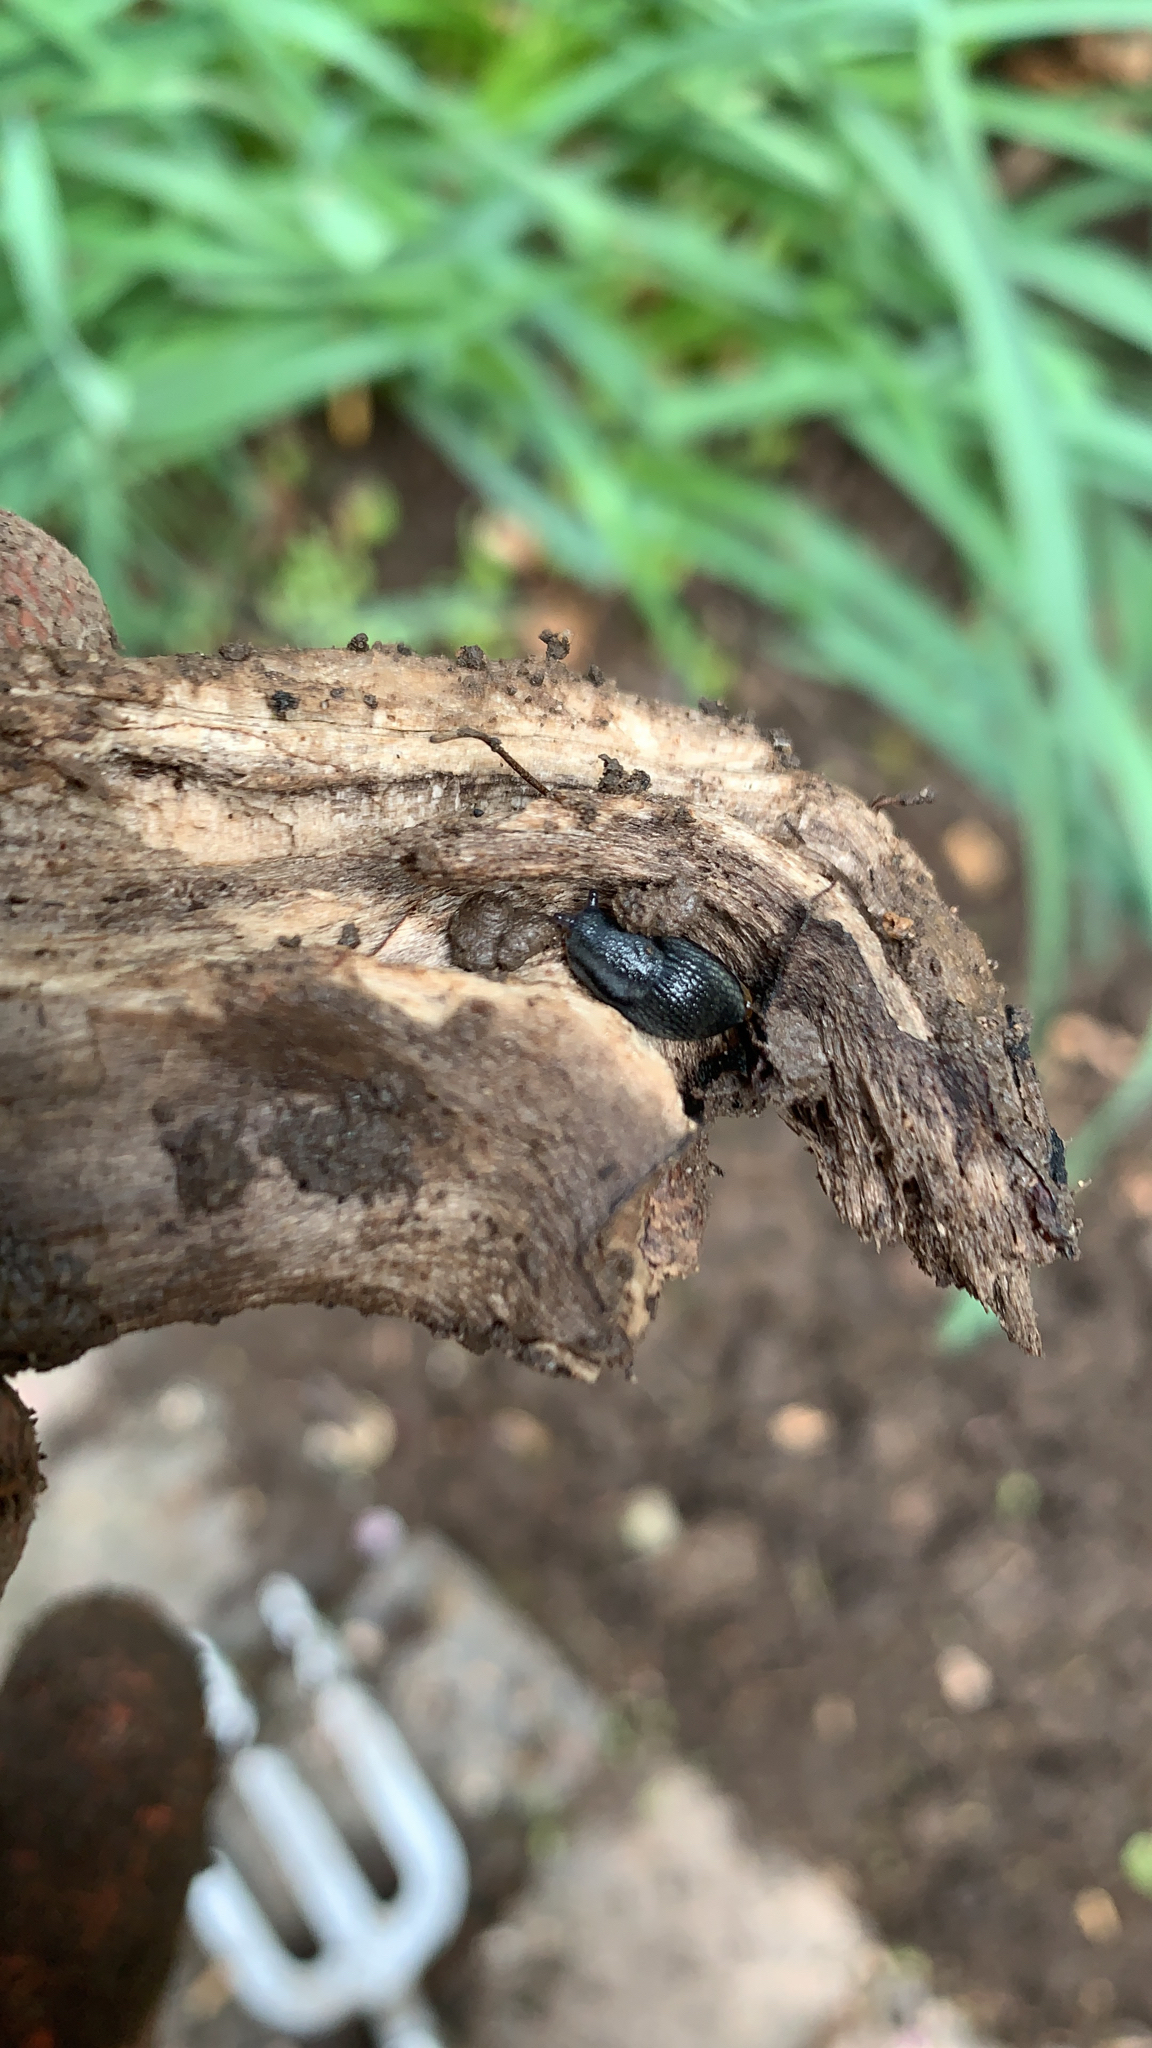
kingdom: Animalia
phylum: Mollusca
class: Gastropoda
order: Stylommatophora
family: Arionidae
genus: Arion
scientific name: Arion hortensis
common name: Garden arion
